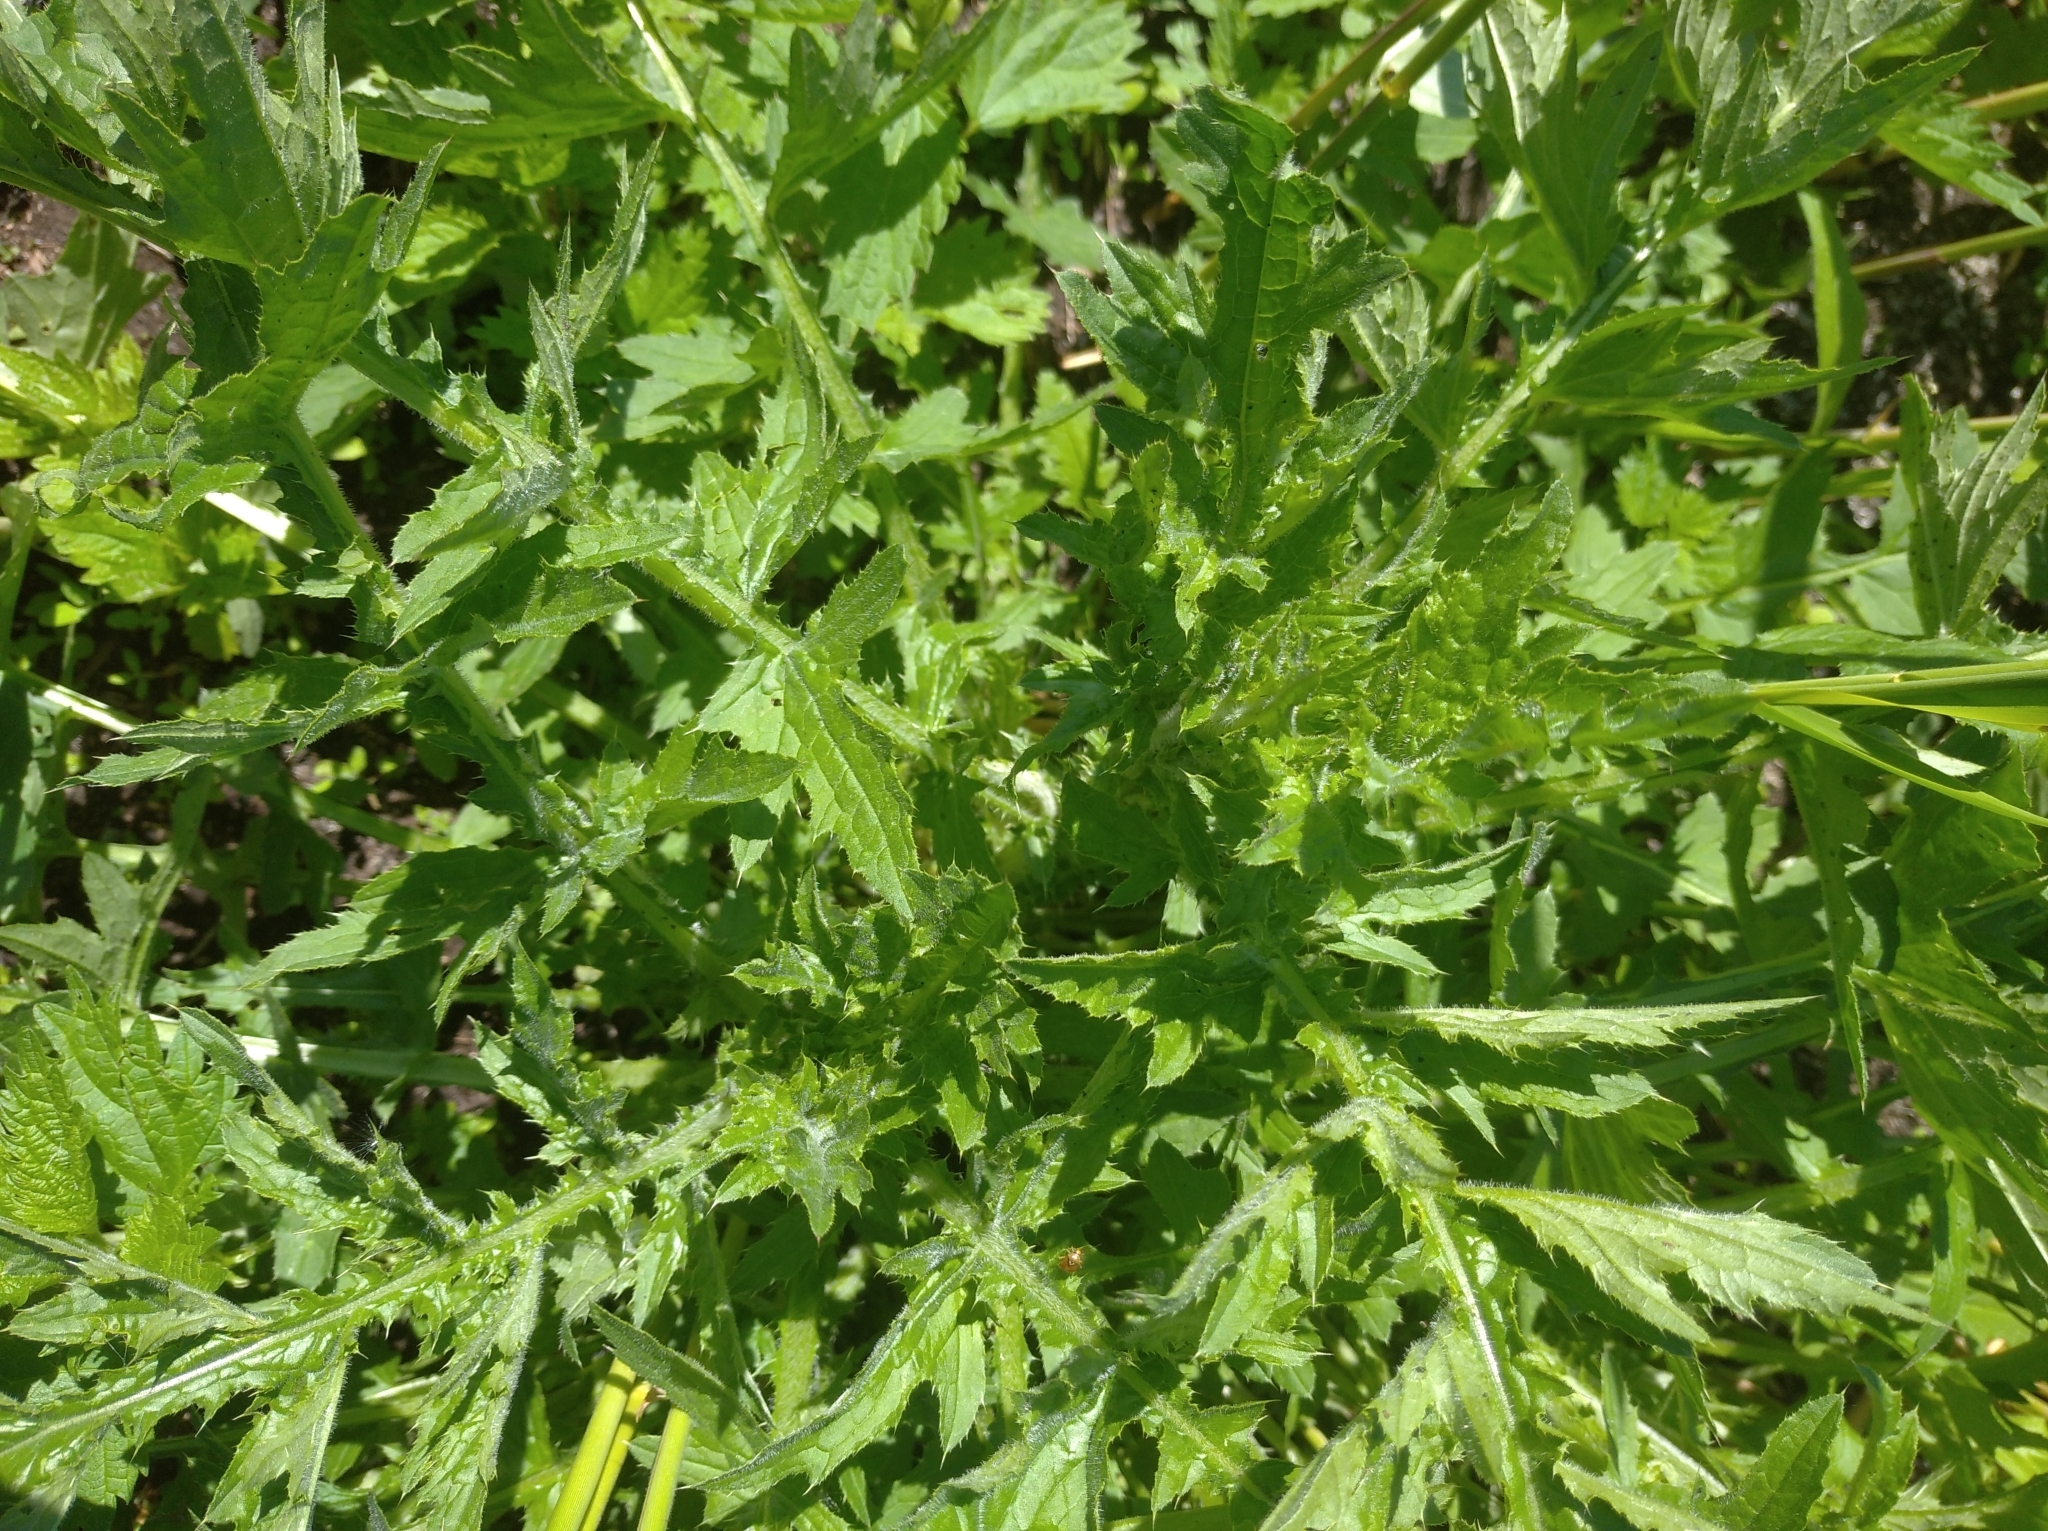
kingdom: Plantae
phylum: Tracheophyta
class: Magnoliopsida
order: Asterales
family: Asteraceae
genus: Carduus
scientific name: Carduus crispus
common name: Welted thistle
